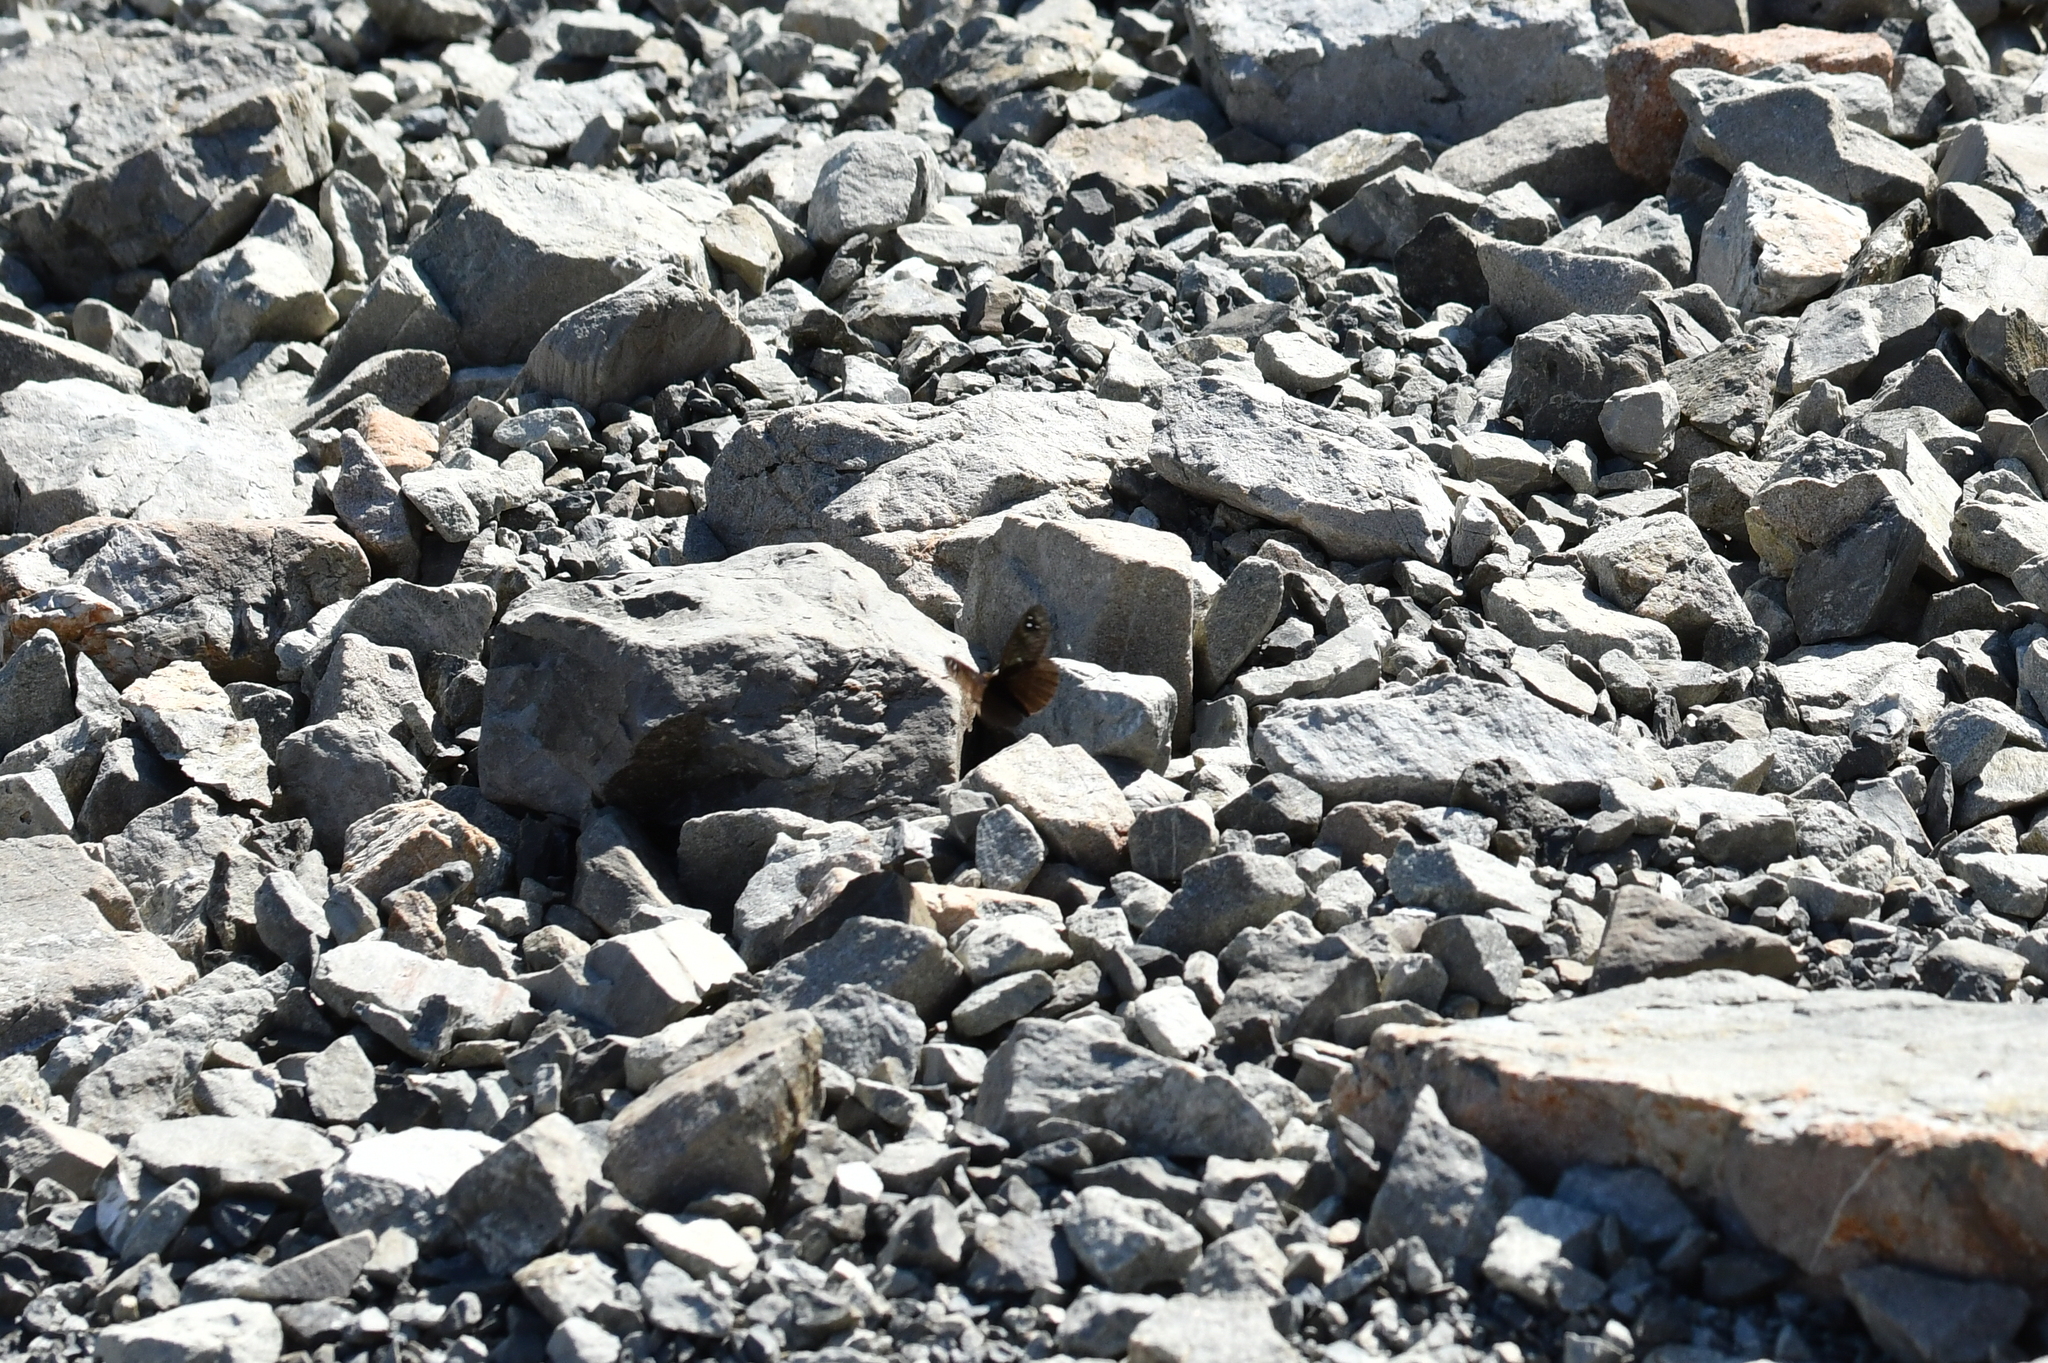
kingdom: Animalia
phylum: Arthropoda
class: Insecta
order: Lepidoptera
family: Nymphalidae
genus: Erebia
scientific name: Erebia Percnodaimon merula
